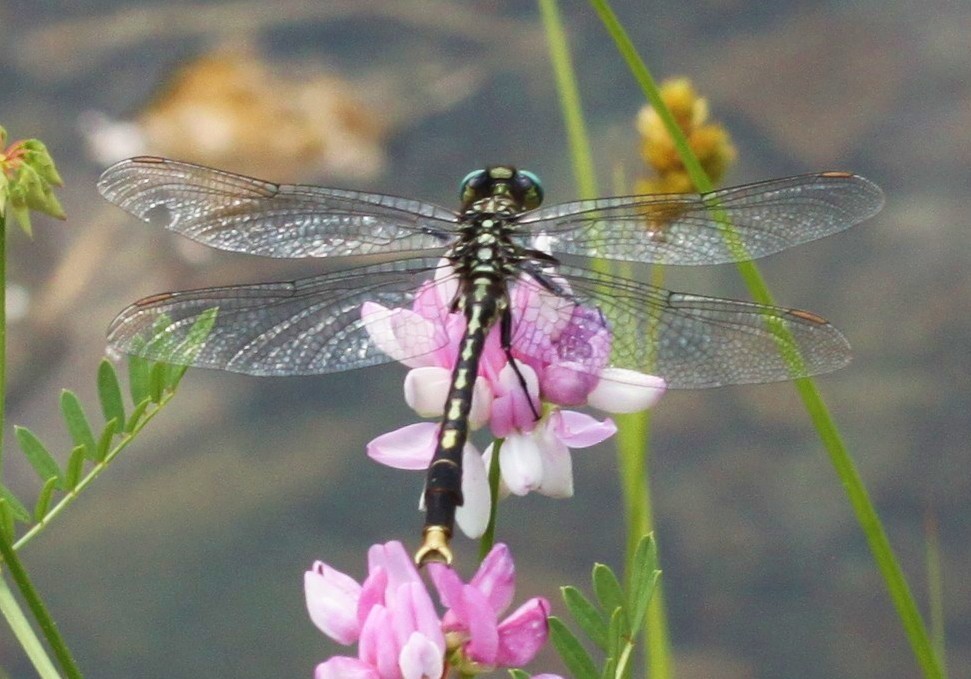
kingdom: Animalia
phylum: Arthropoda
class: Insecta
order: Odonata
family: Gomphidae
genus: Arigomphus
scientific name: Arigomphus villosipes
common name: Unicorn clubtail
